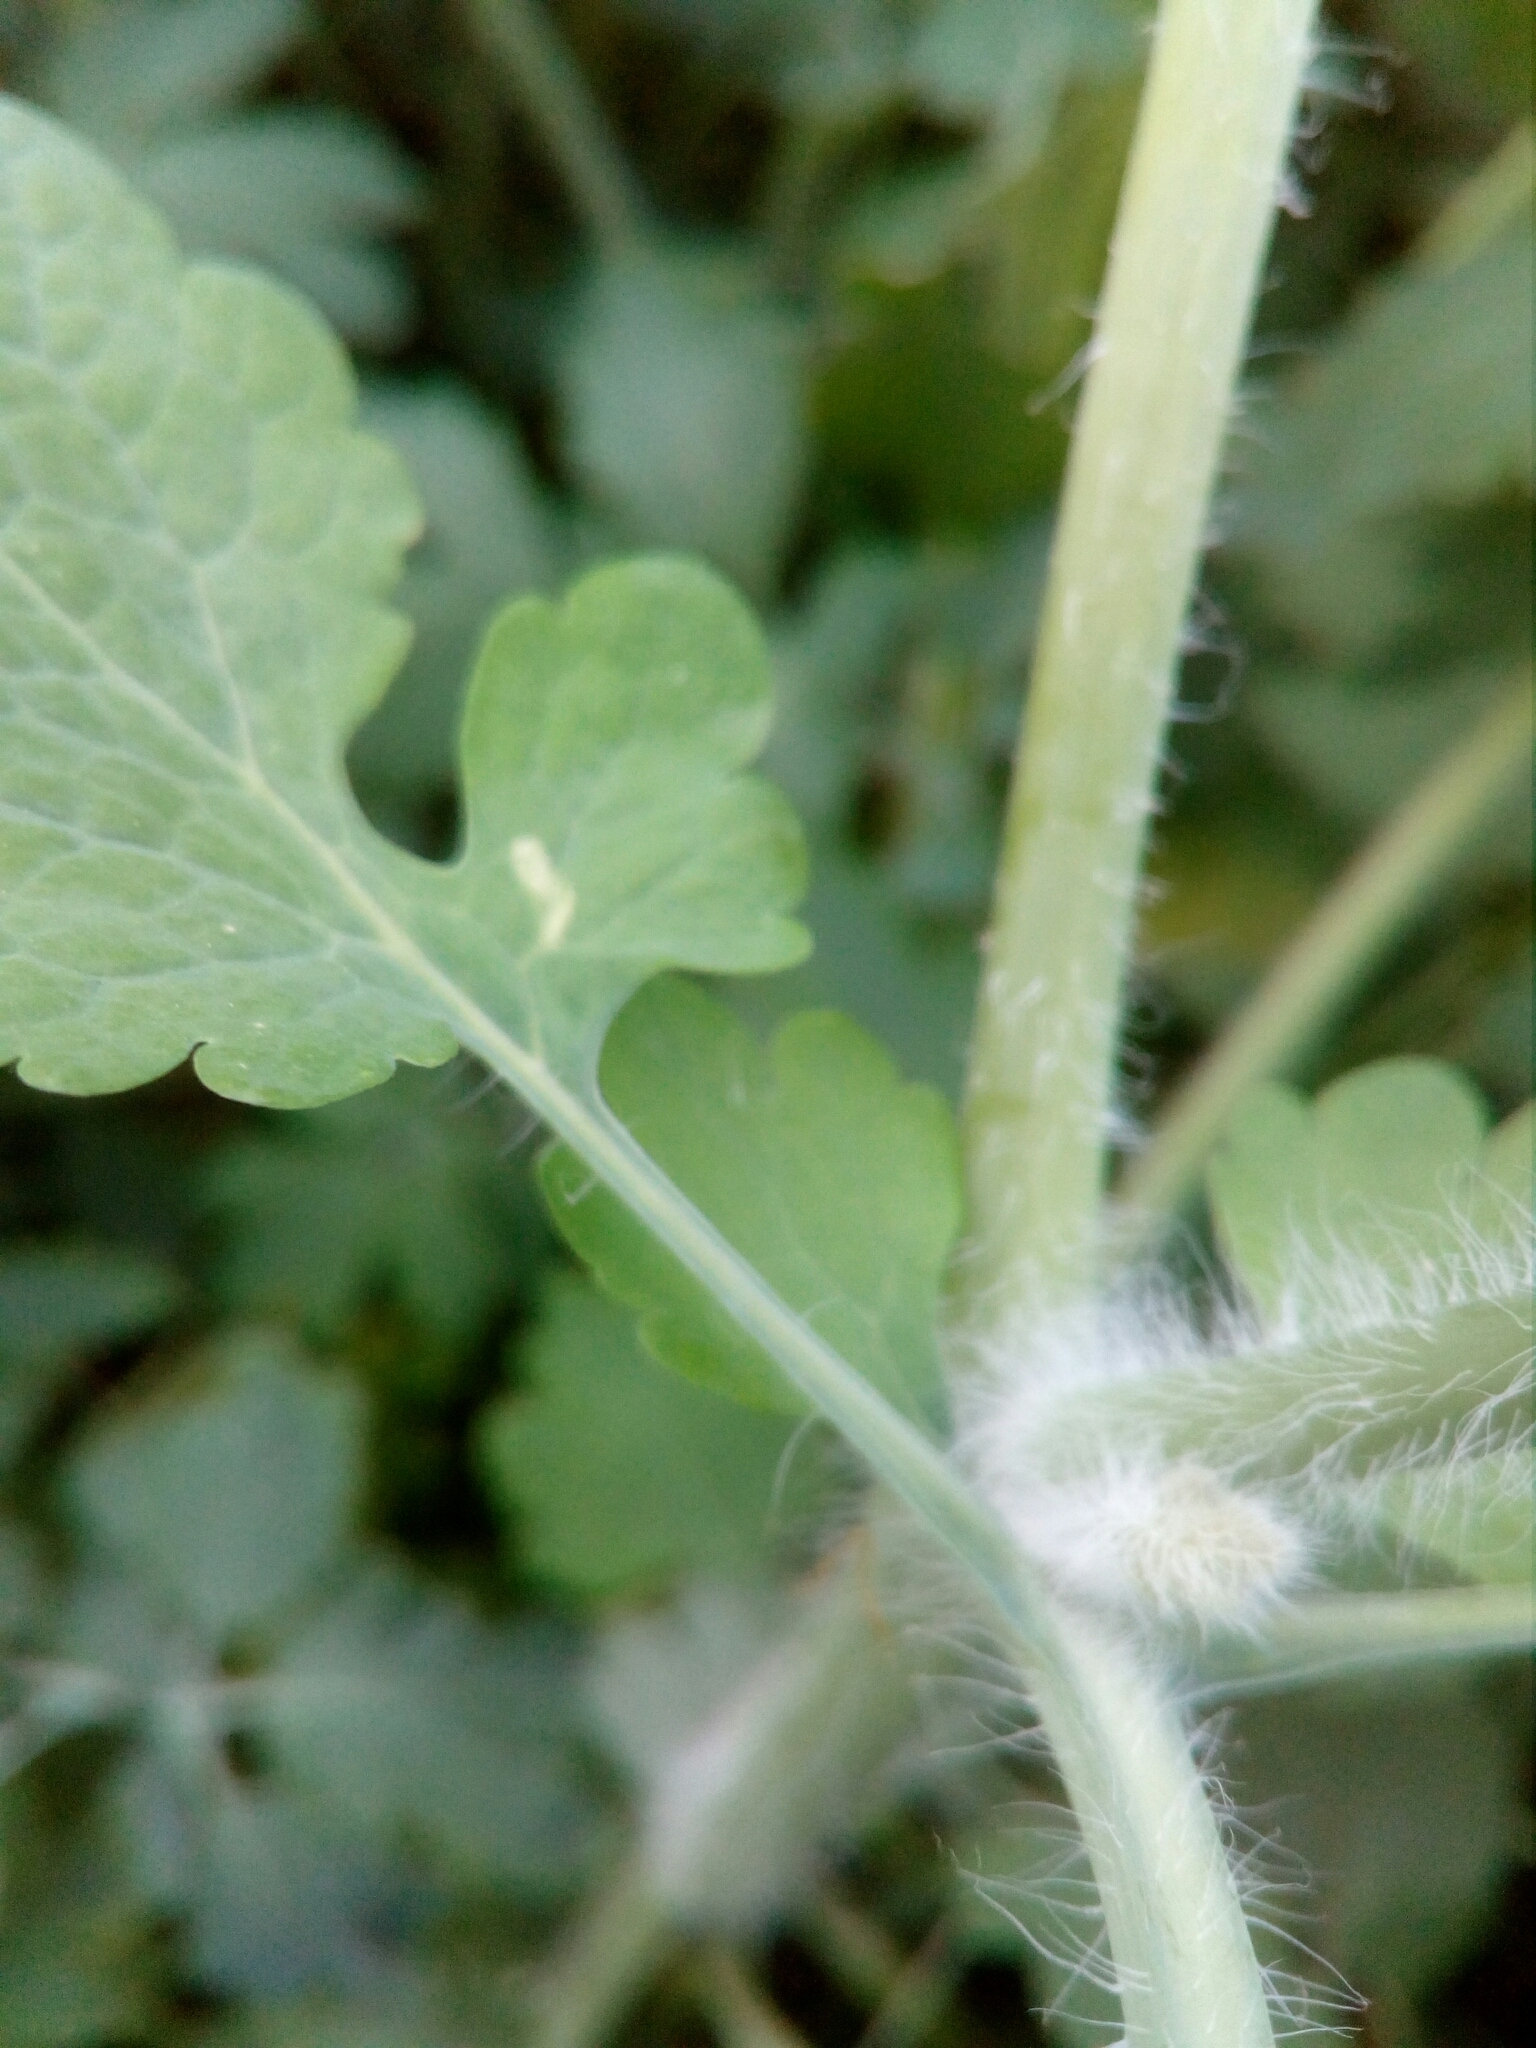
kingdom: Plantae
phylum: Tracheophyta
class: Magnoliopsida
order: Ranunculales
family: Papaveraceae
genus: Chelidonium
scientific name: Chelidonium majus
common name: Greater celandine
